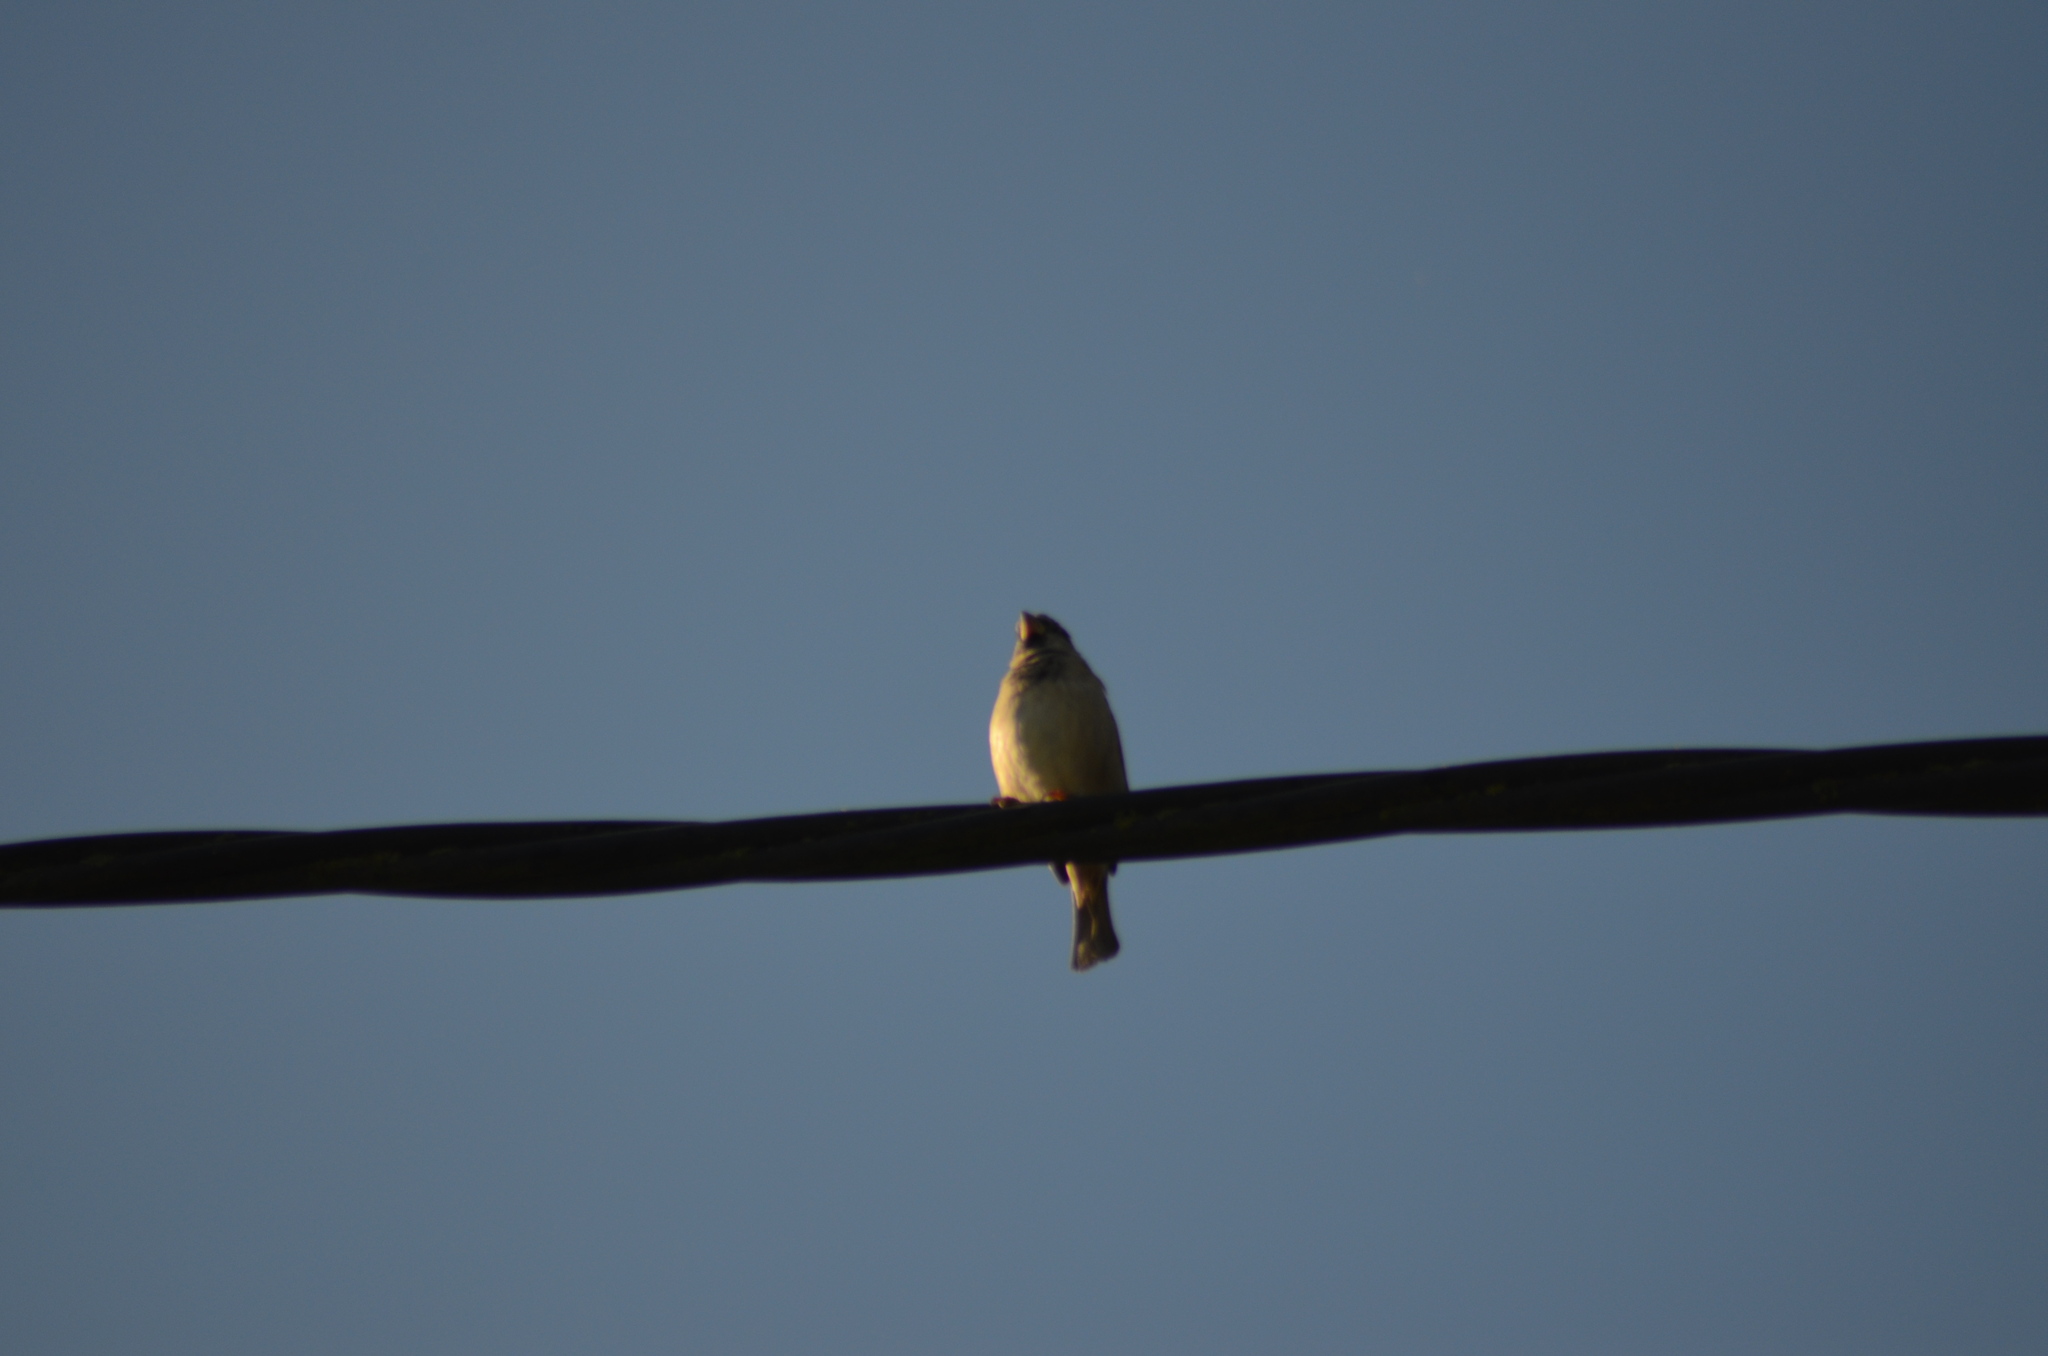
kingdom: Animalia
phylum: Chordata
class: Aves
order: Passeriformes
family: Passeridae
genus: Passer
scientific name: Passer domesticus
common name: House sparrow
